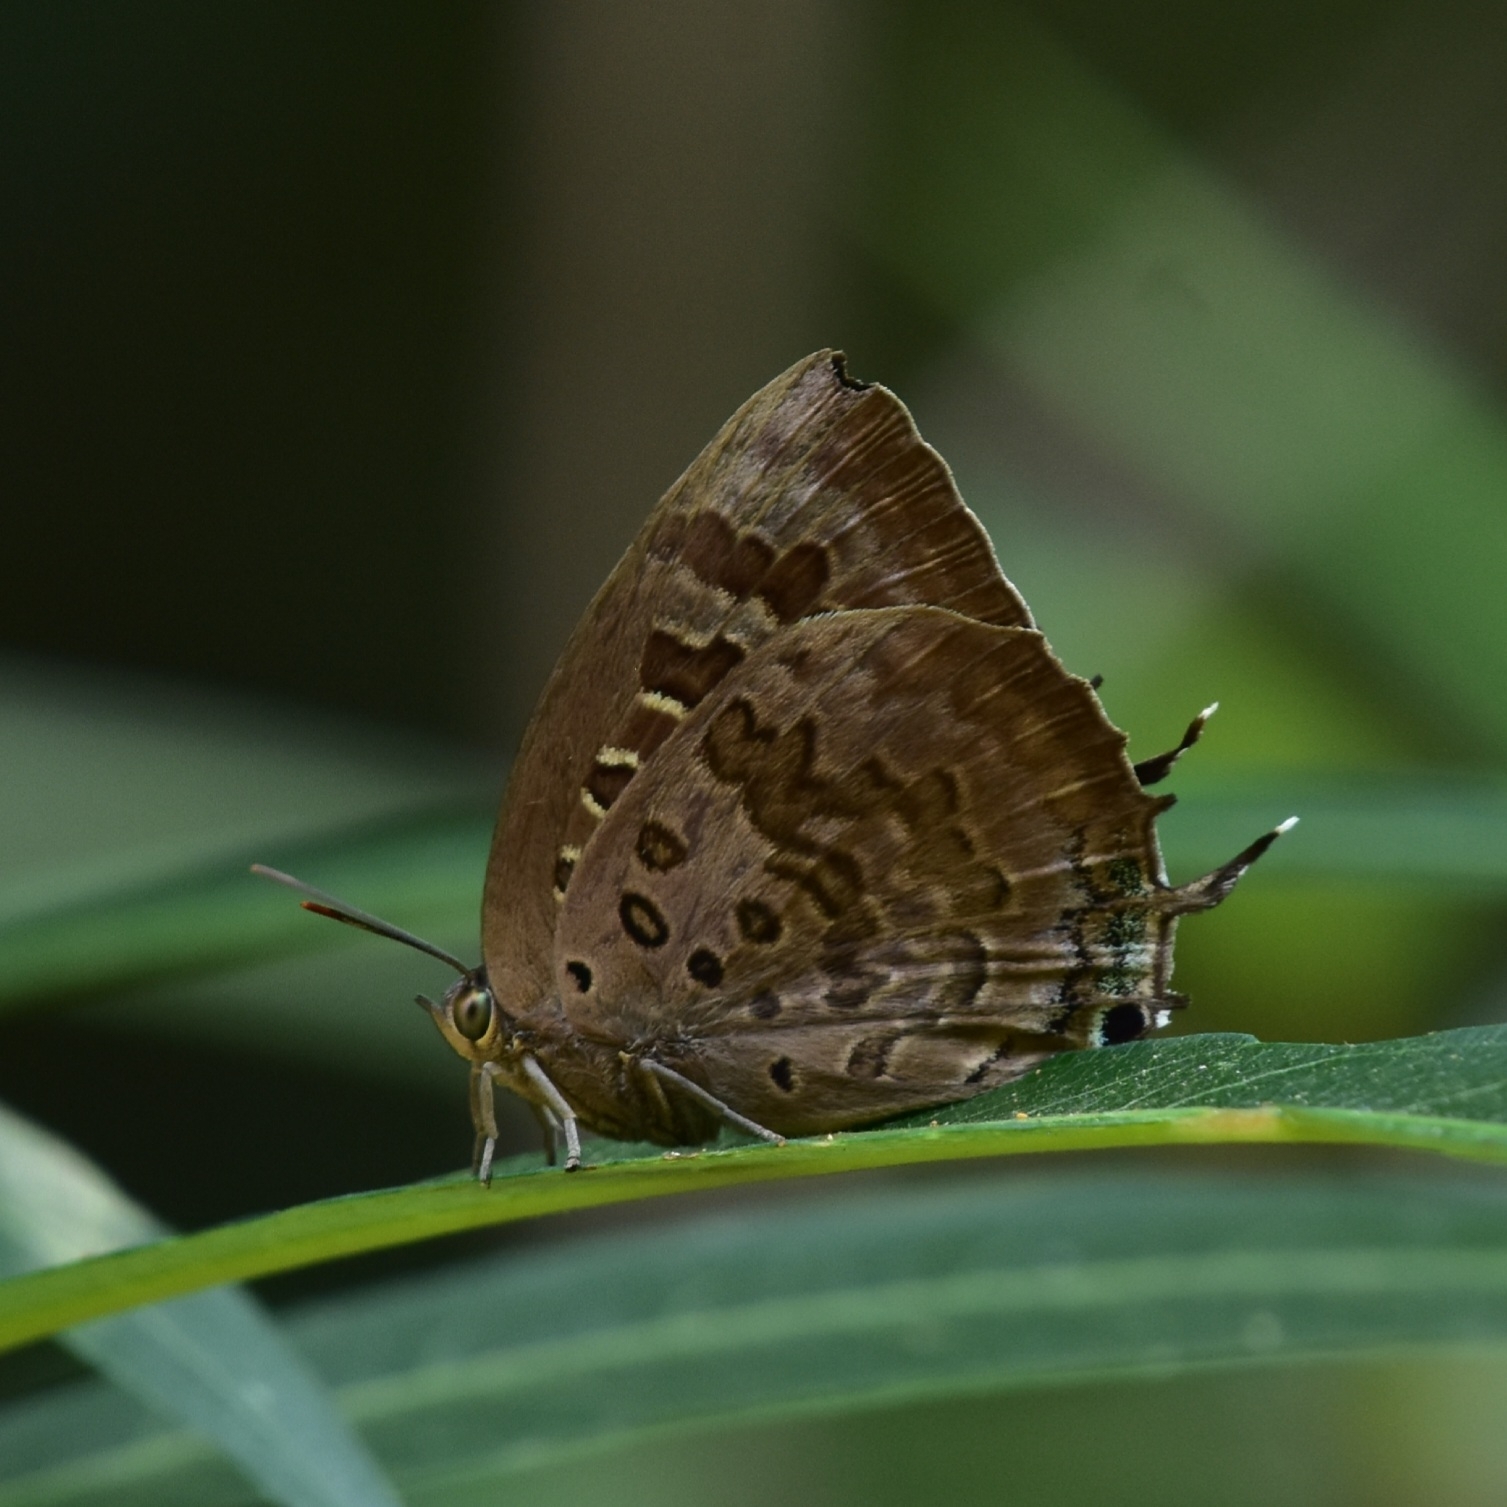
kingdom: Animalia
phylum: Arthropoda
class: Insecta
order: Lepidoptera
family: Lycaenidae
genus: Arhopala
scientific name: Arhopala amantes
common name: Large oakblue
